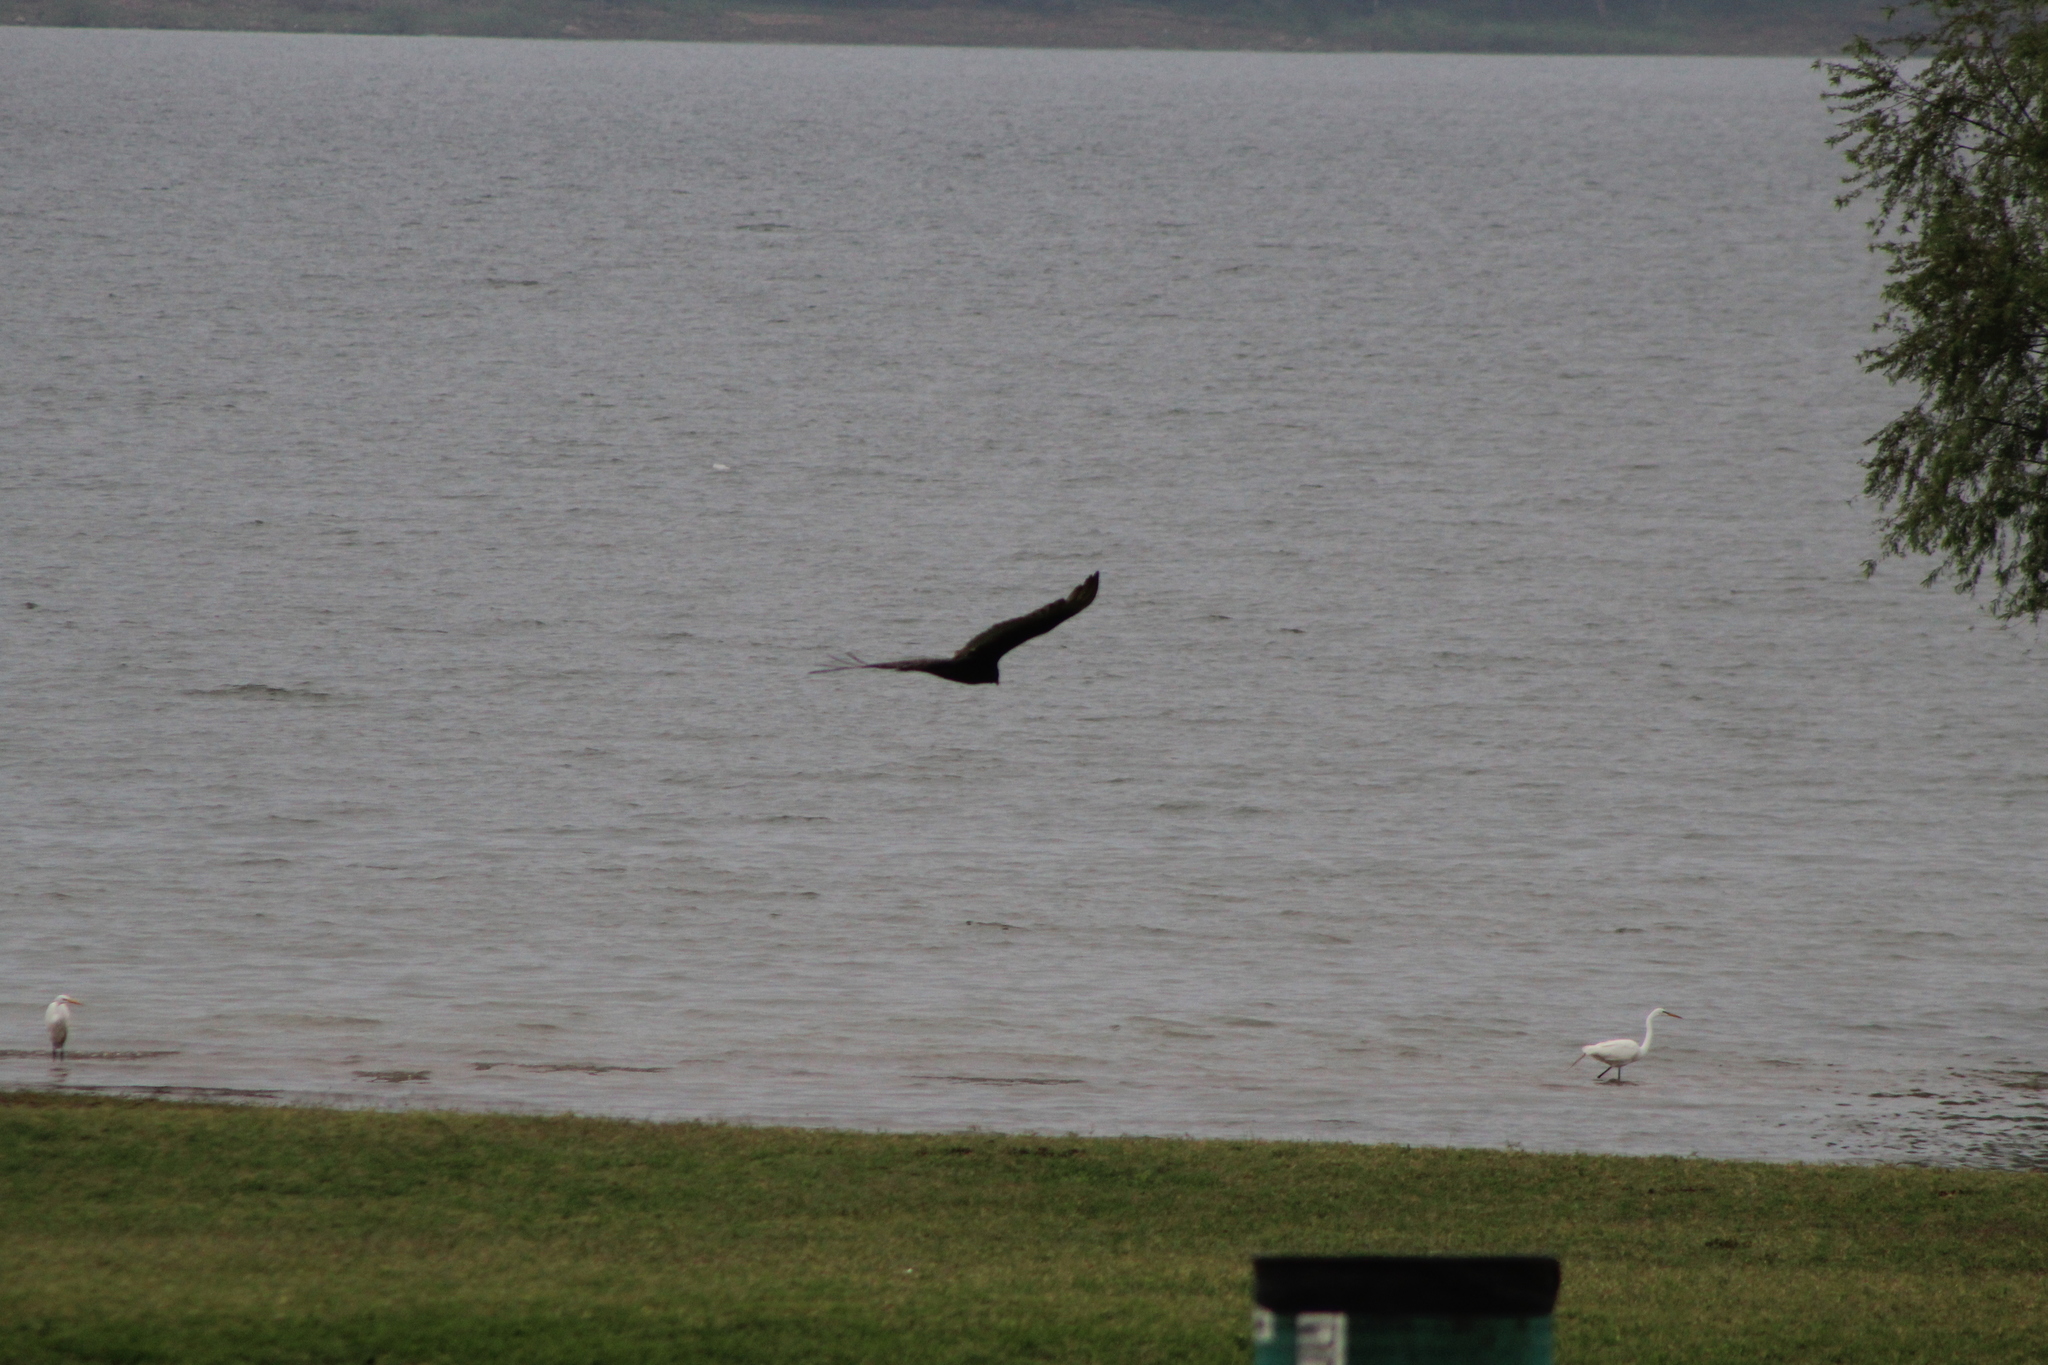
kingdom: Animalia
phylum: Chordata
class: Aves
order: Accipitriformes
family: Cathartidae
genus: Cathartes
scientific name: Cathartes aura
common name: Turkey vulture
